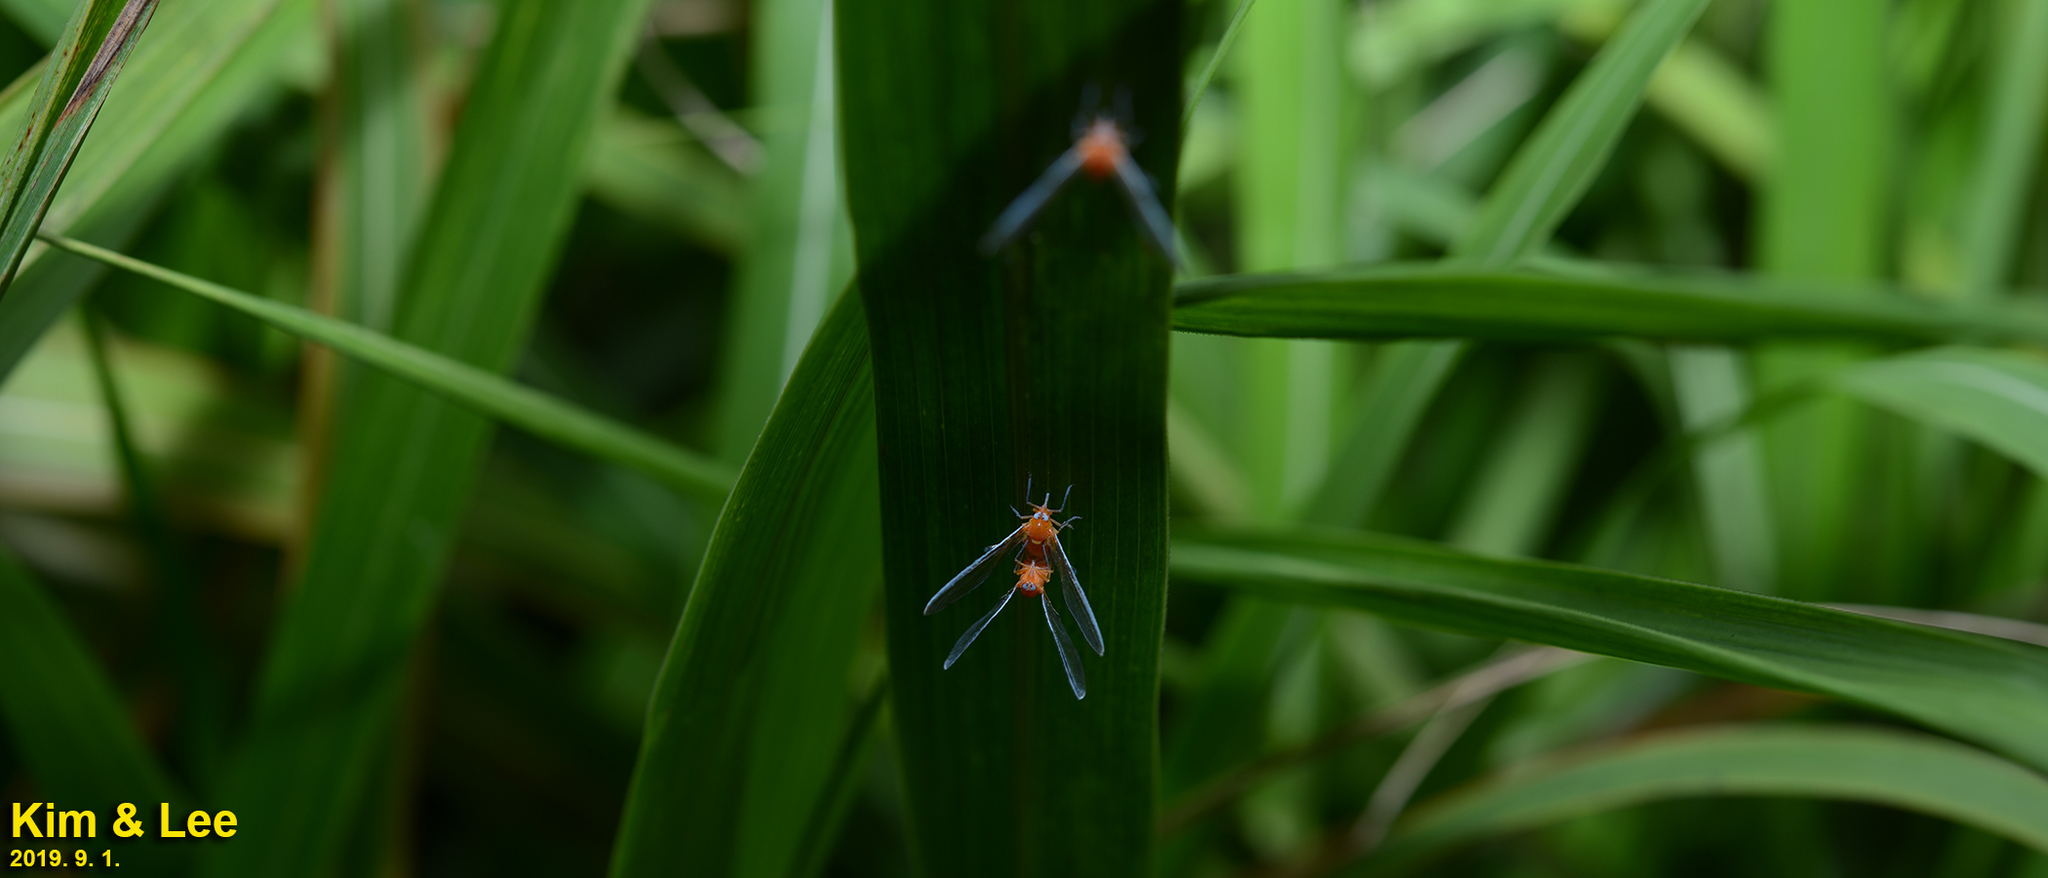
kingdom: Animalia
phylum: Arthropoda
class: Insecta
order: Hemiptera
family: Derbidae
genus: Diostrombus
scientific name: Diostrombus politus
